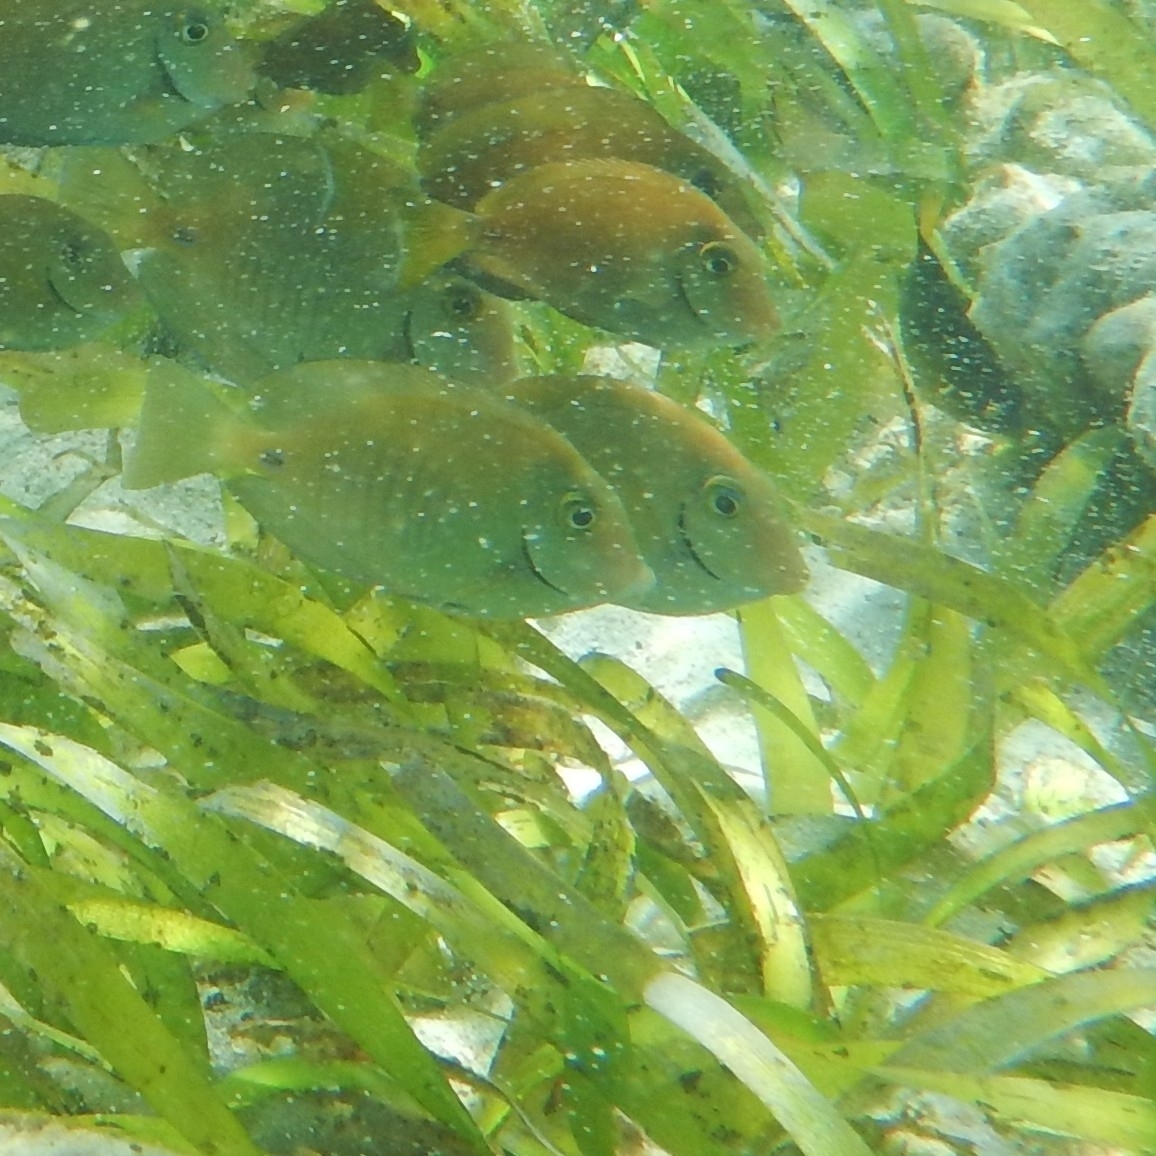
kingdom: Animalia
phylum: Chordata
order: Perciformes
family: Acanthuridae
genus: Acanthurus
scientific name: Acanthurus chirurgus
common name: Doctorfish
